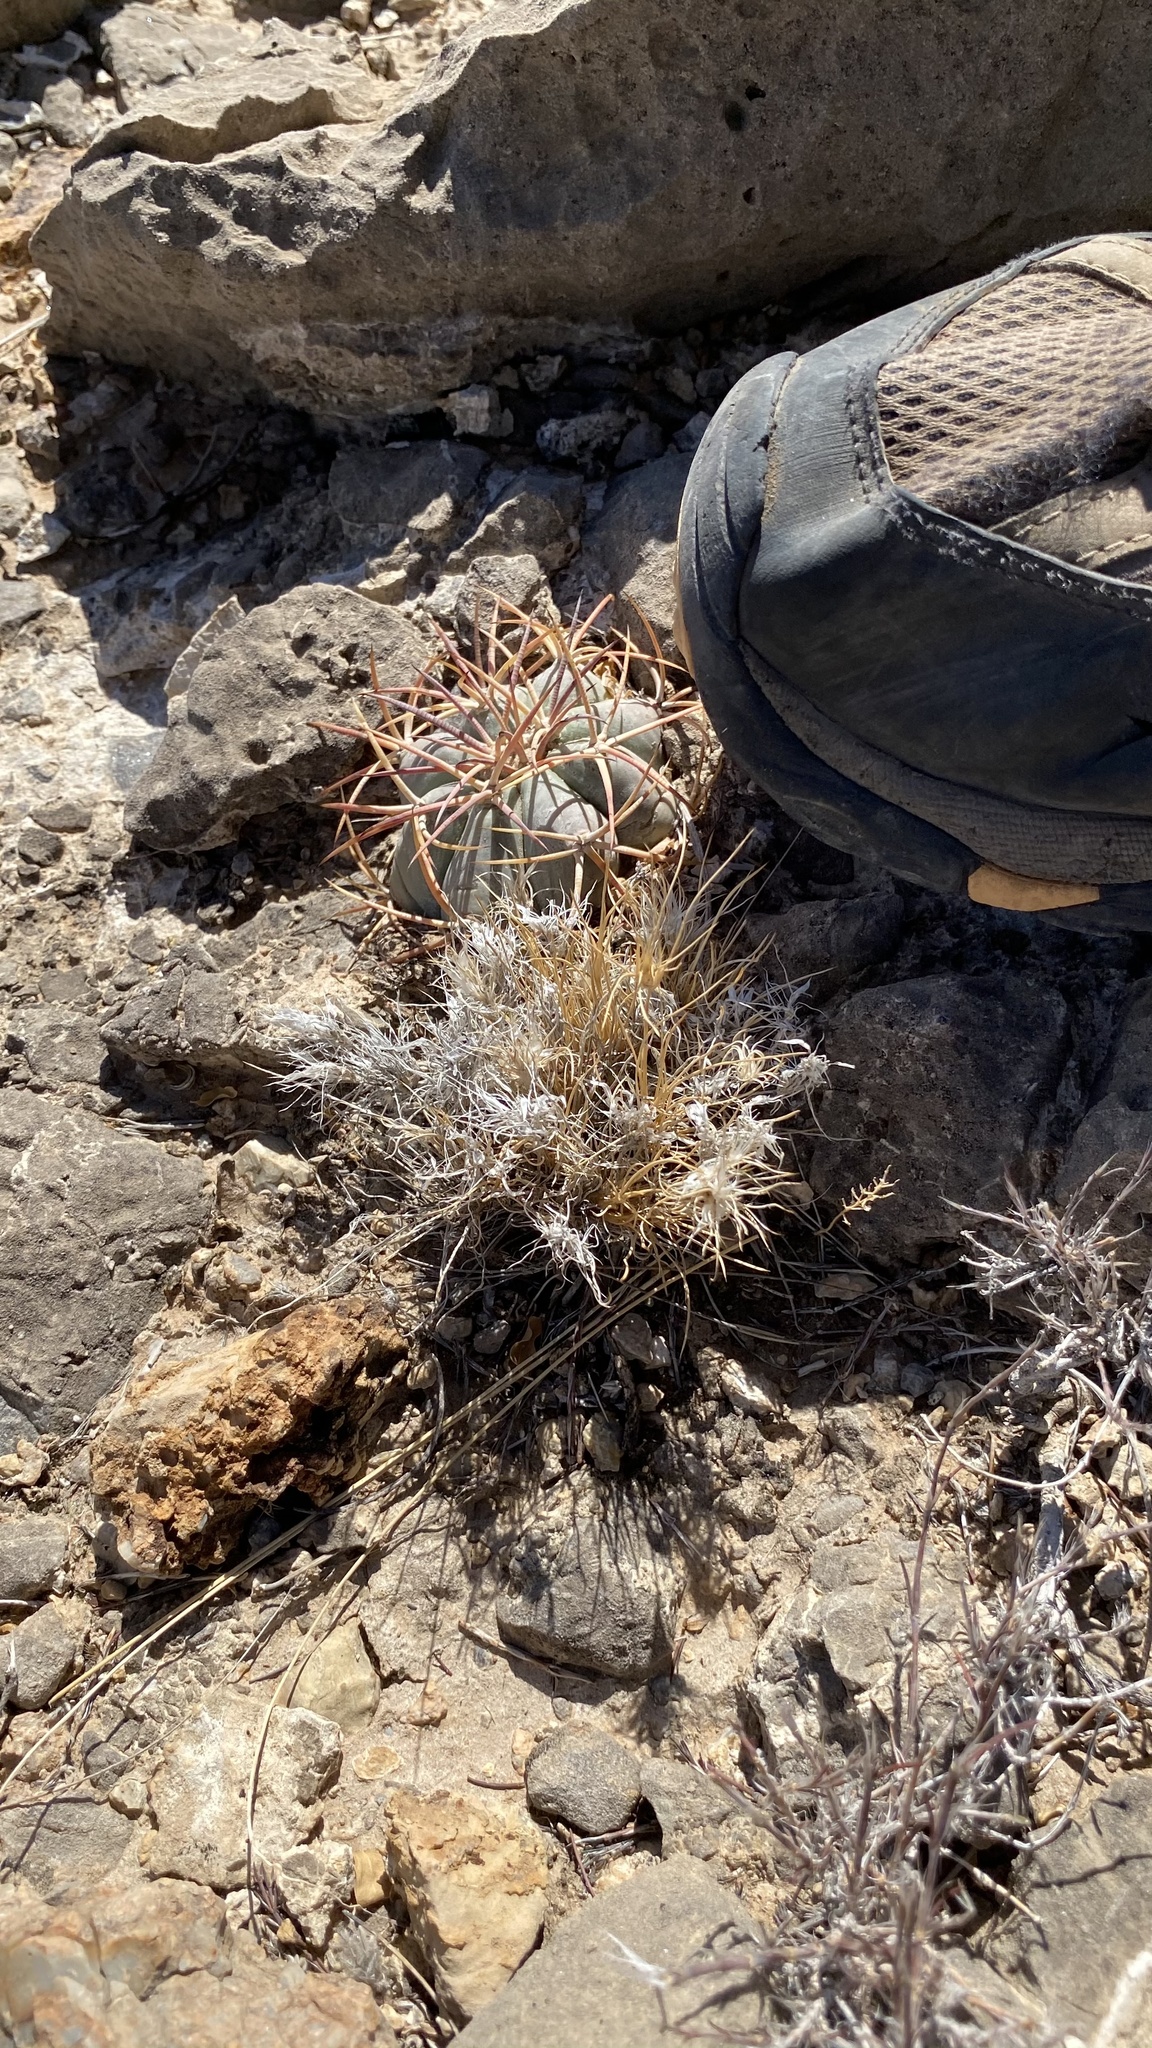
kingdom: Plantae
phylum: Tracheophyta
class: Liliopsida
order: Poales
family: Poaceae
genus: Dasyochloa
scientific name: Dasyochloa pulchella
